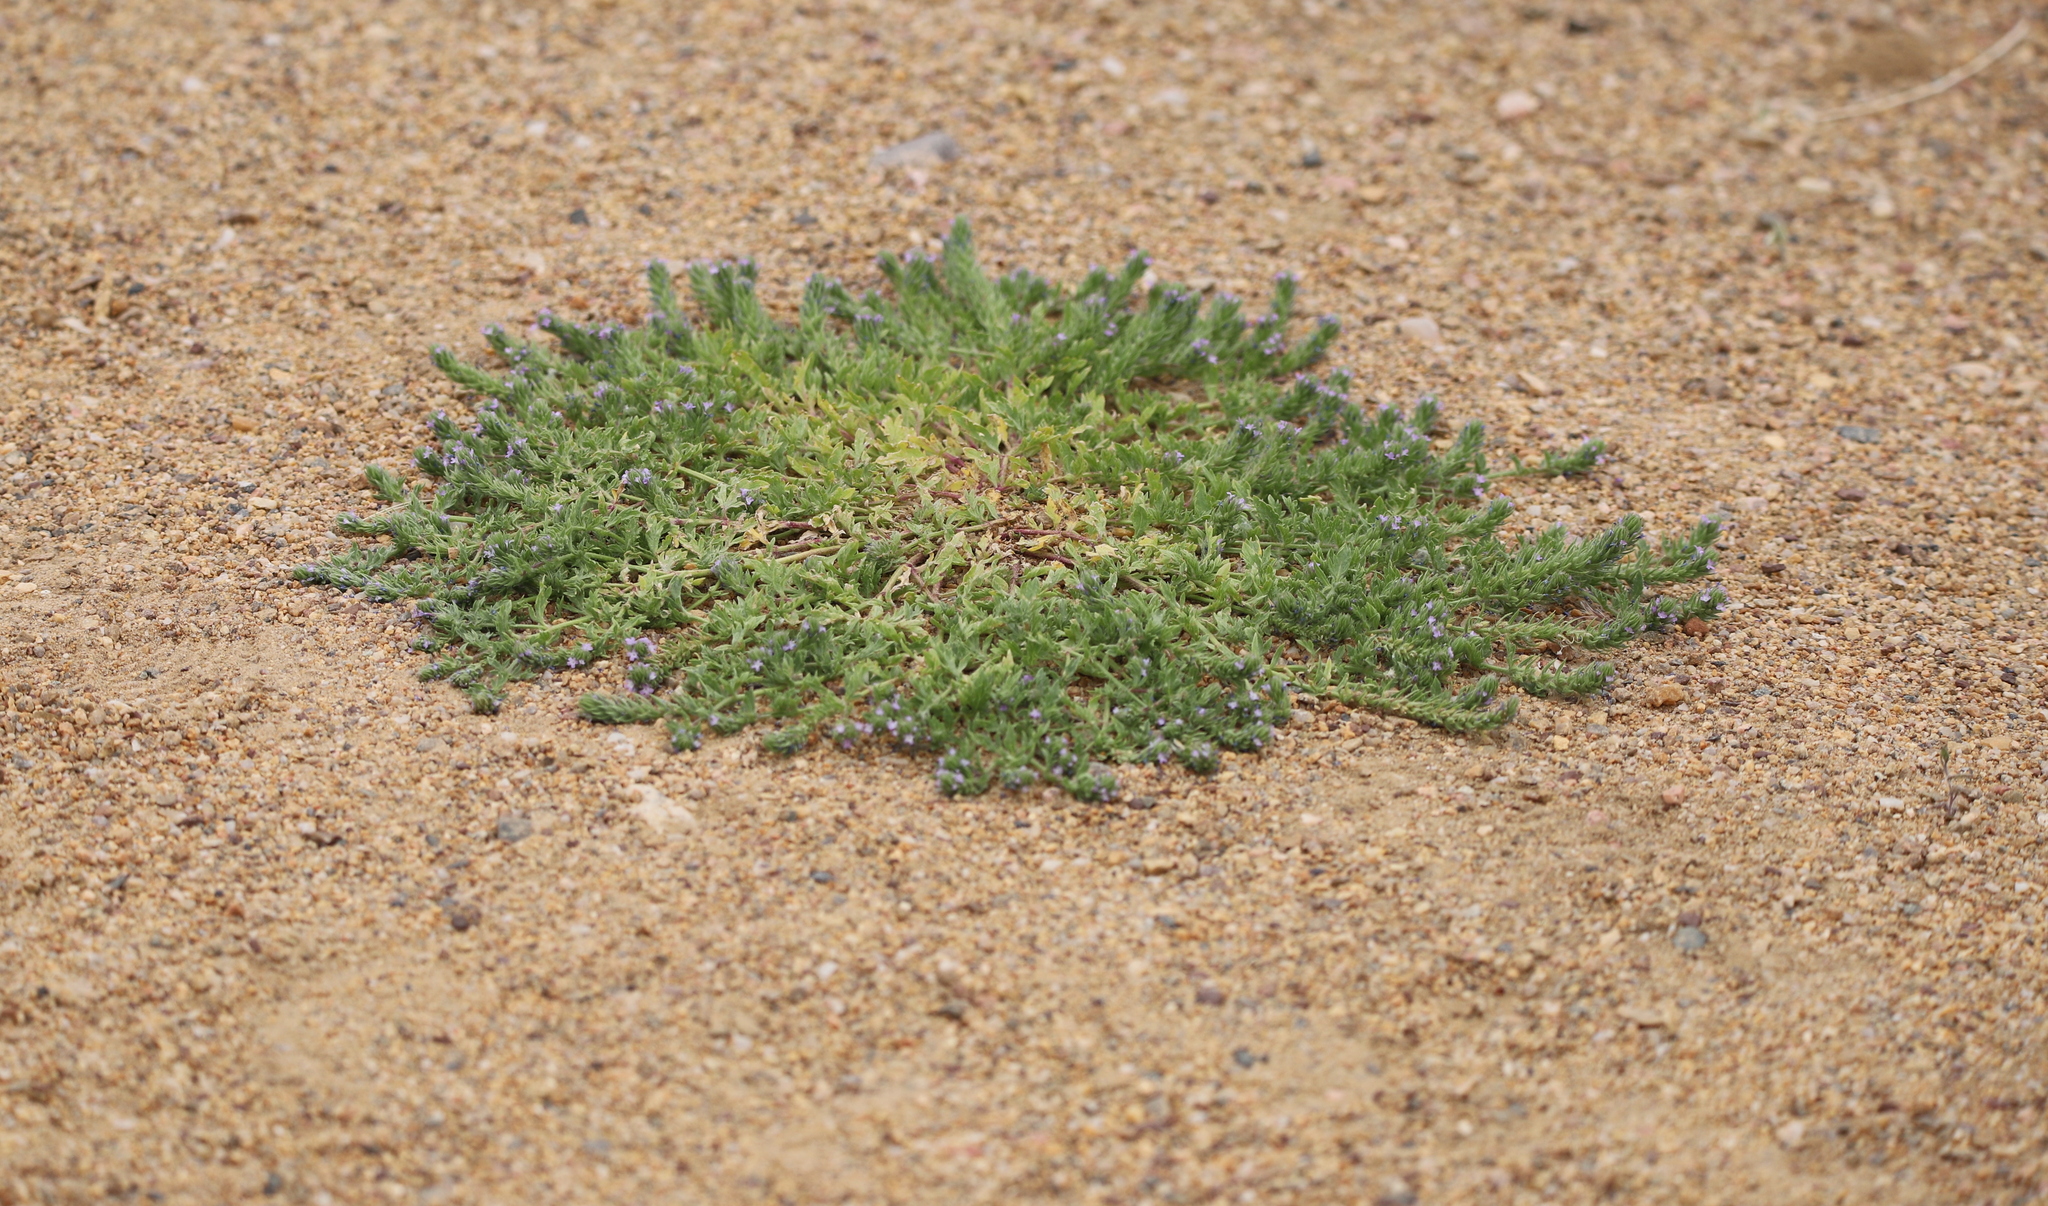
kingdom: Plantae
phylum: Tracheophyta
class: Magnoliopsida
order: Lamiales
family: Verbenaceae
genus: Verbena
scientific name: Verbena bracteata
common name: Bracted vervain
